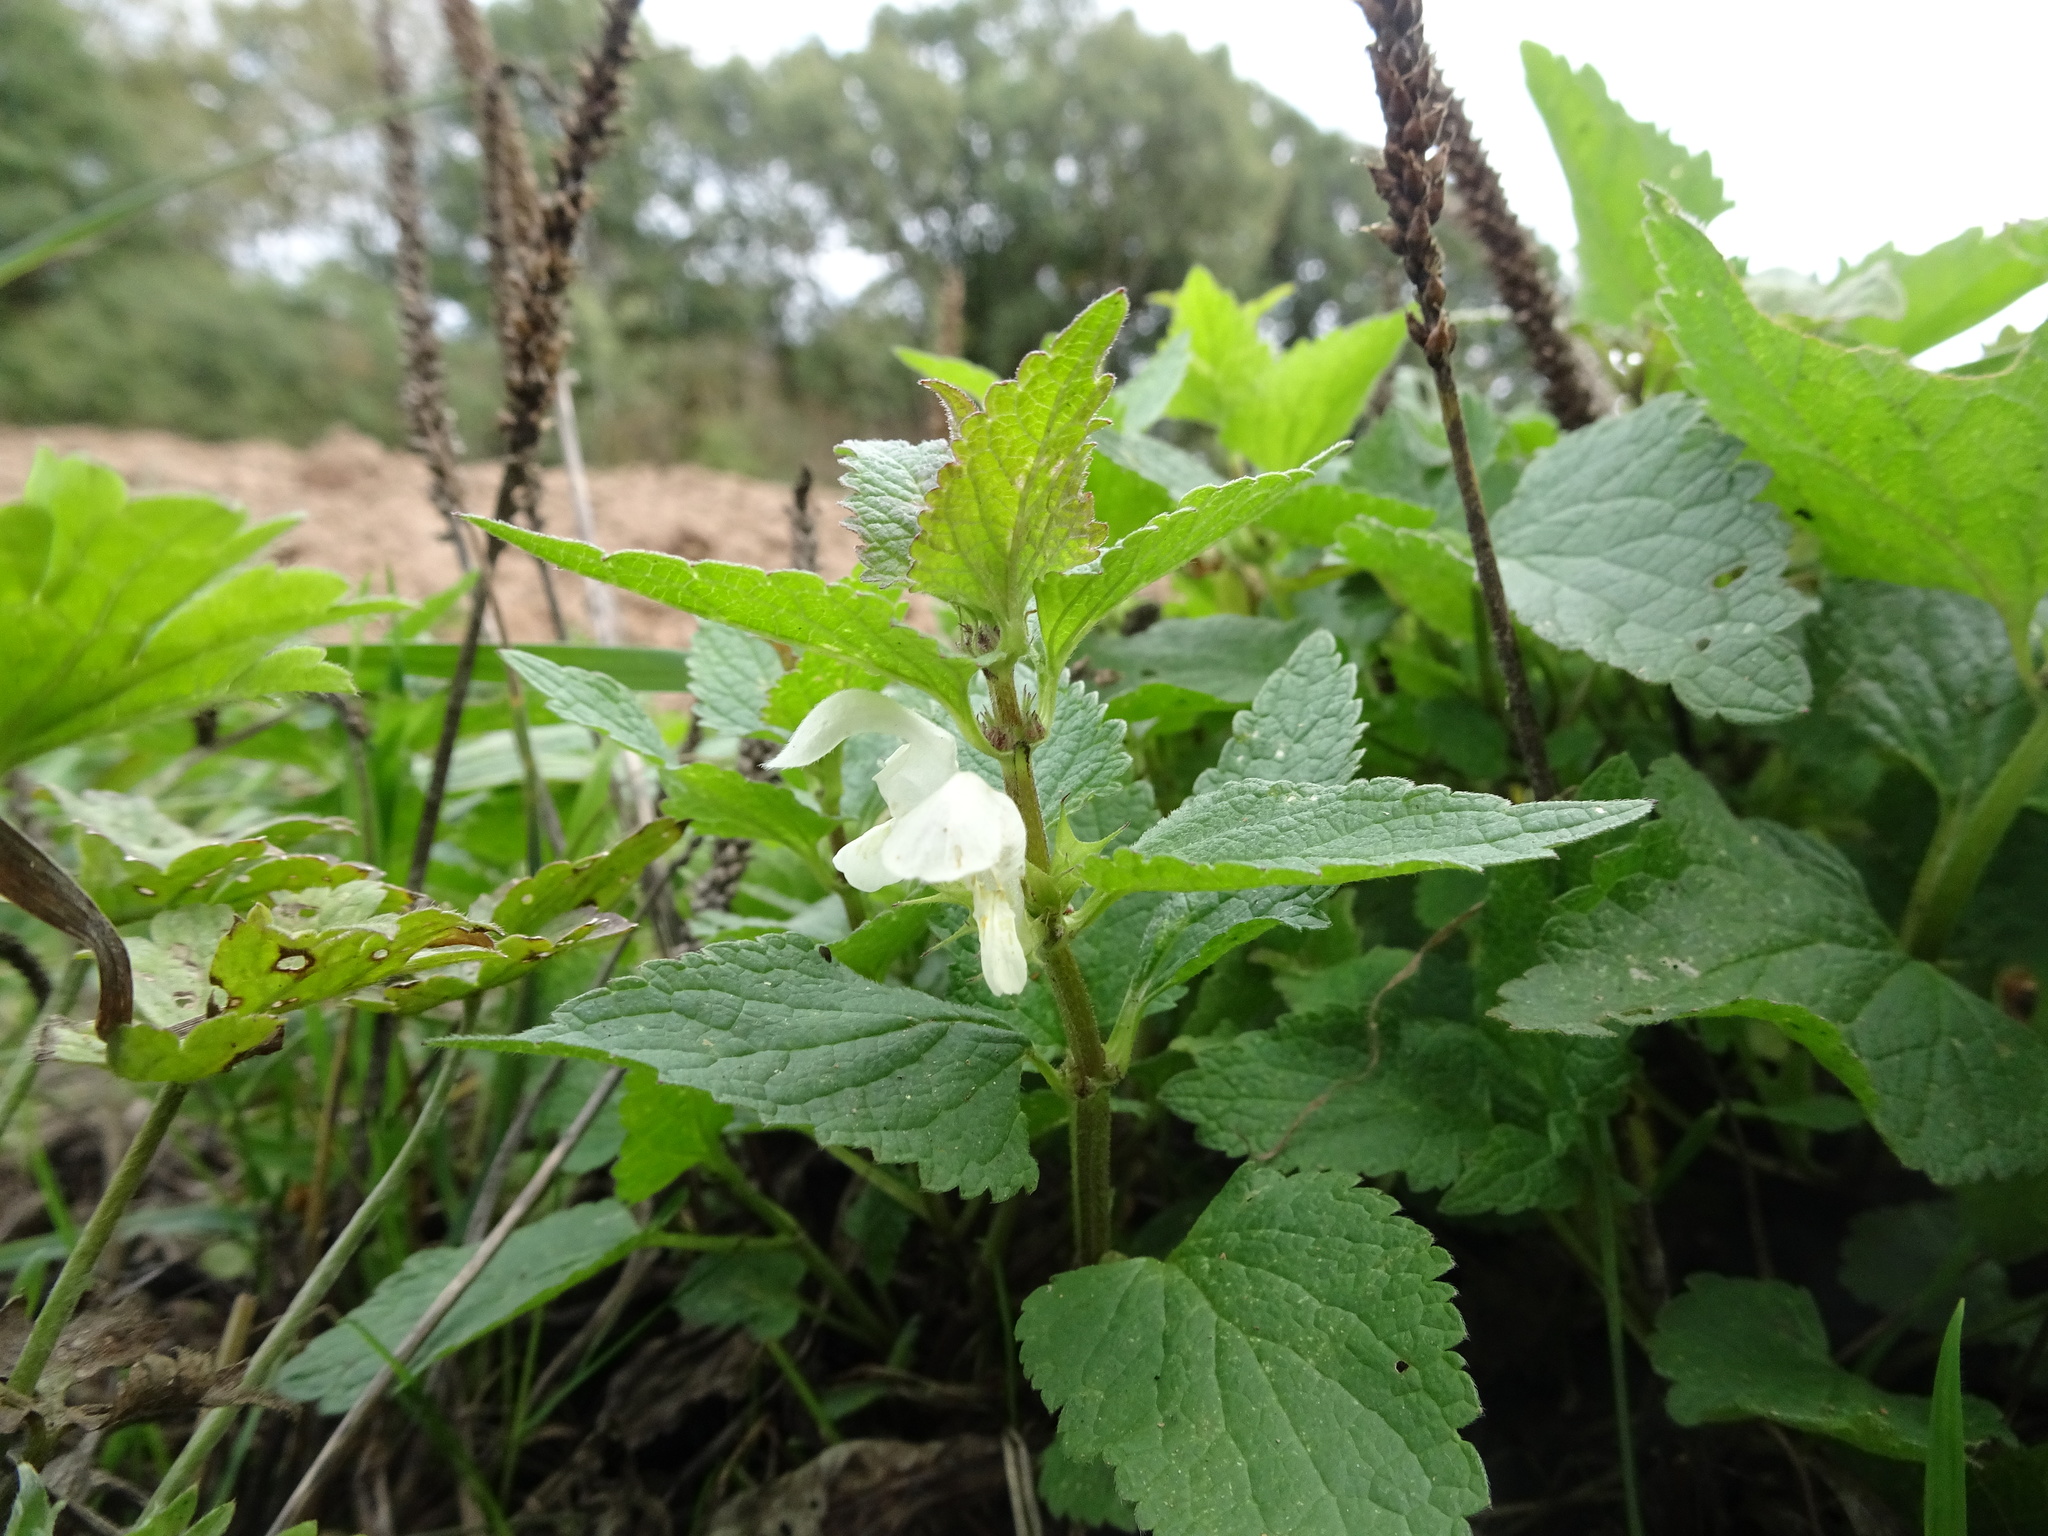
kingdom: Plantae
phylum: Tracheophyta
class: Magnoliopsida
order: Lamiales
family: Lamiaceae
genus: Lamium
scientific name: Lamium album
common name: White dead-nettle
